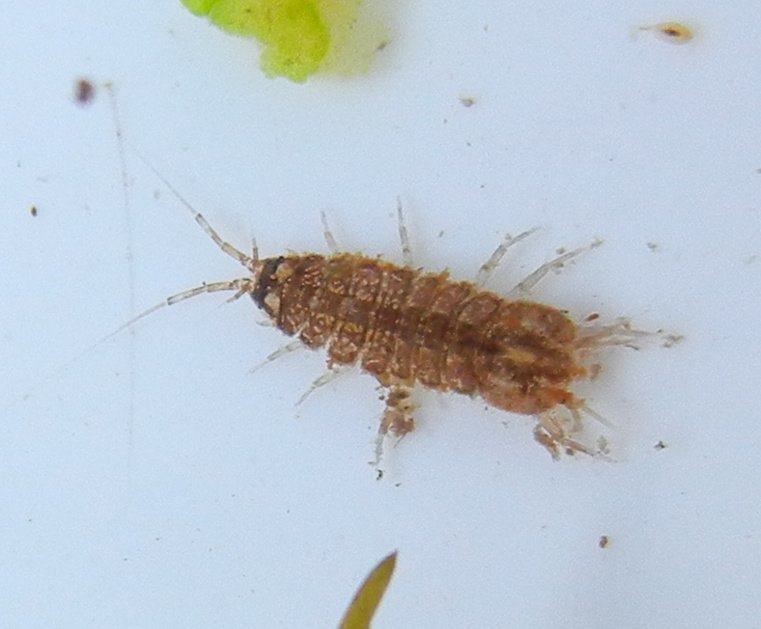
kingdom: Animalia
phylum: Arthropoda
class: Malacostraca
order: Isopoda
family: Asellidae
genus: Asellus
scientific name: Asellus aquaticus
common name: Water hog lice/slaters
